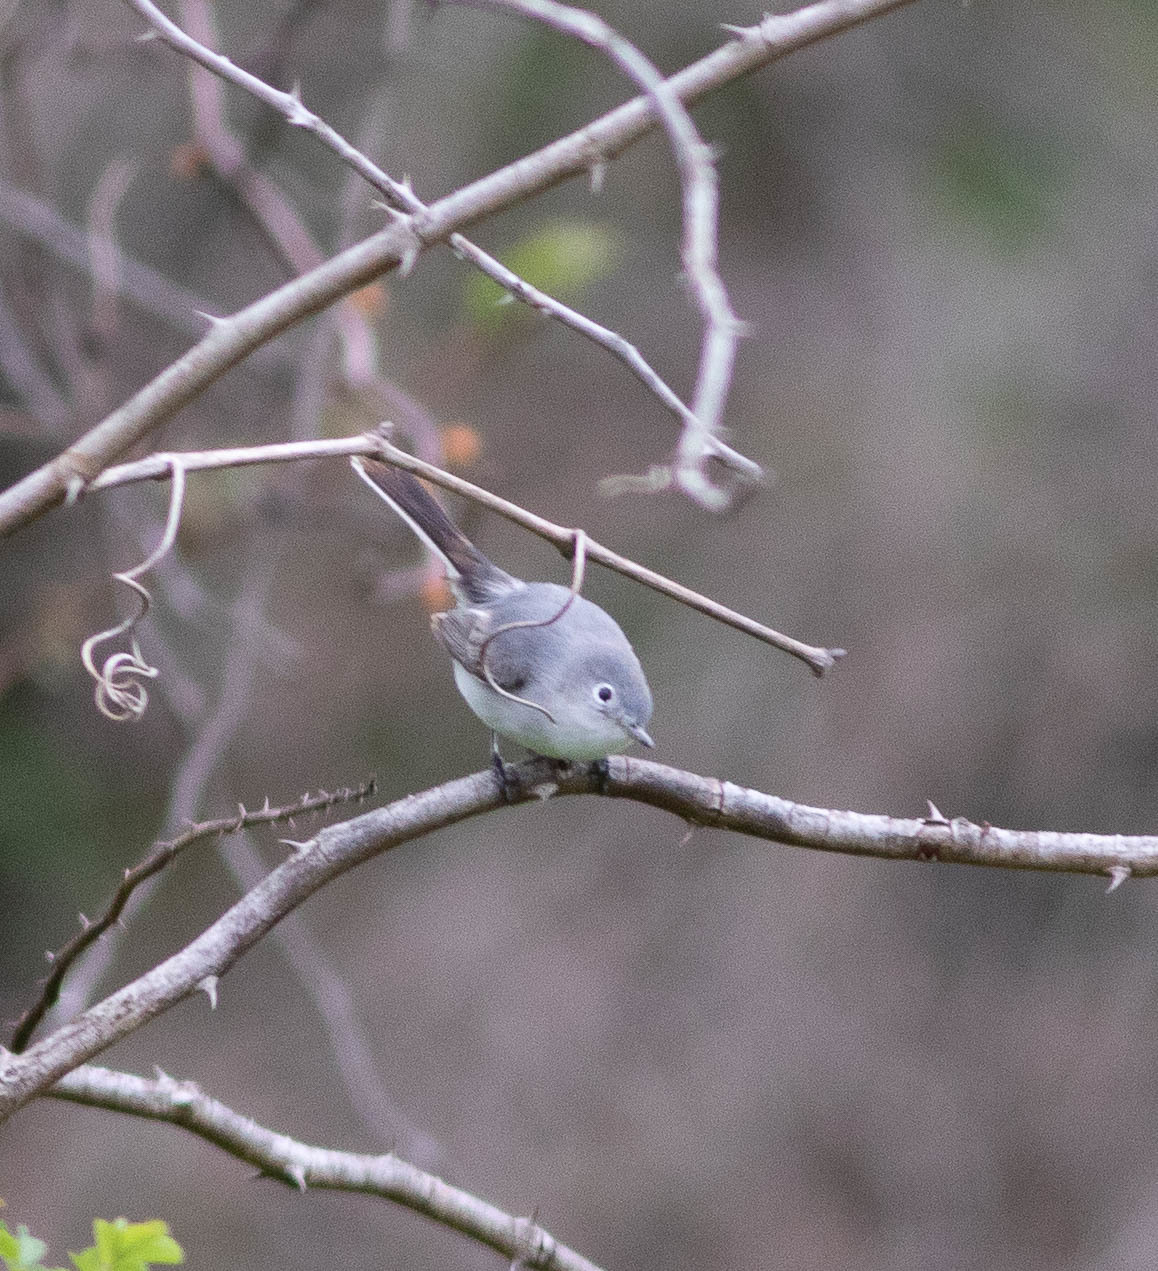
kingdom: Animalia
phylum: Chordata
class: Aves
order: Passeriformes
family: Polioptilidae
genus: Polioptila
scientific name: Polioptila caerulea
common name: Blue-gray gnatcatcher
